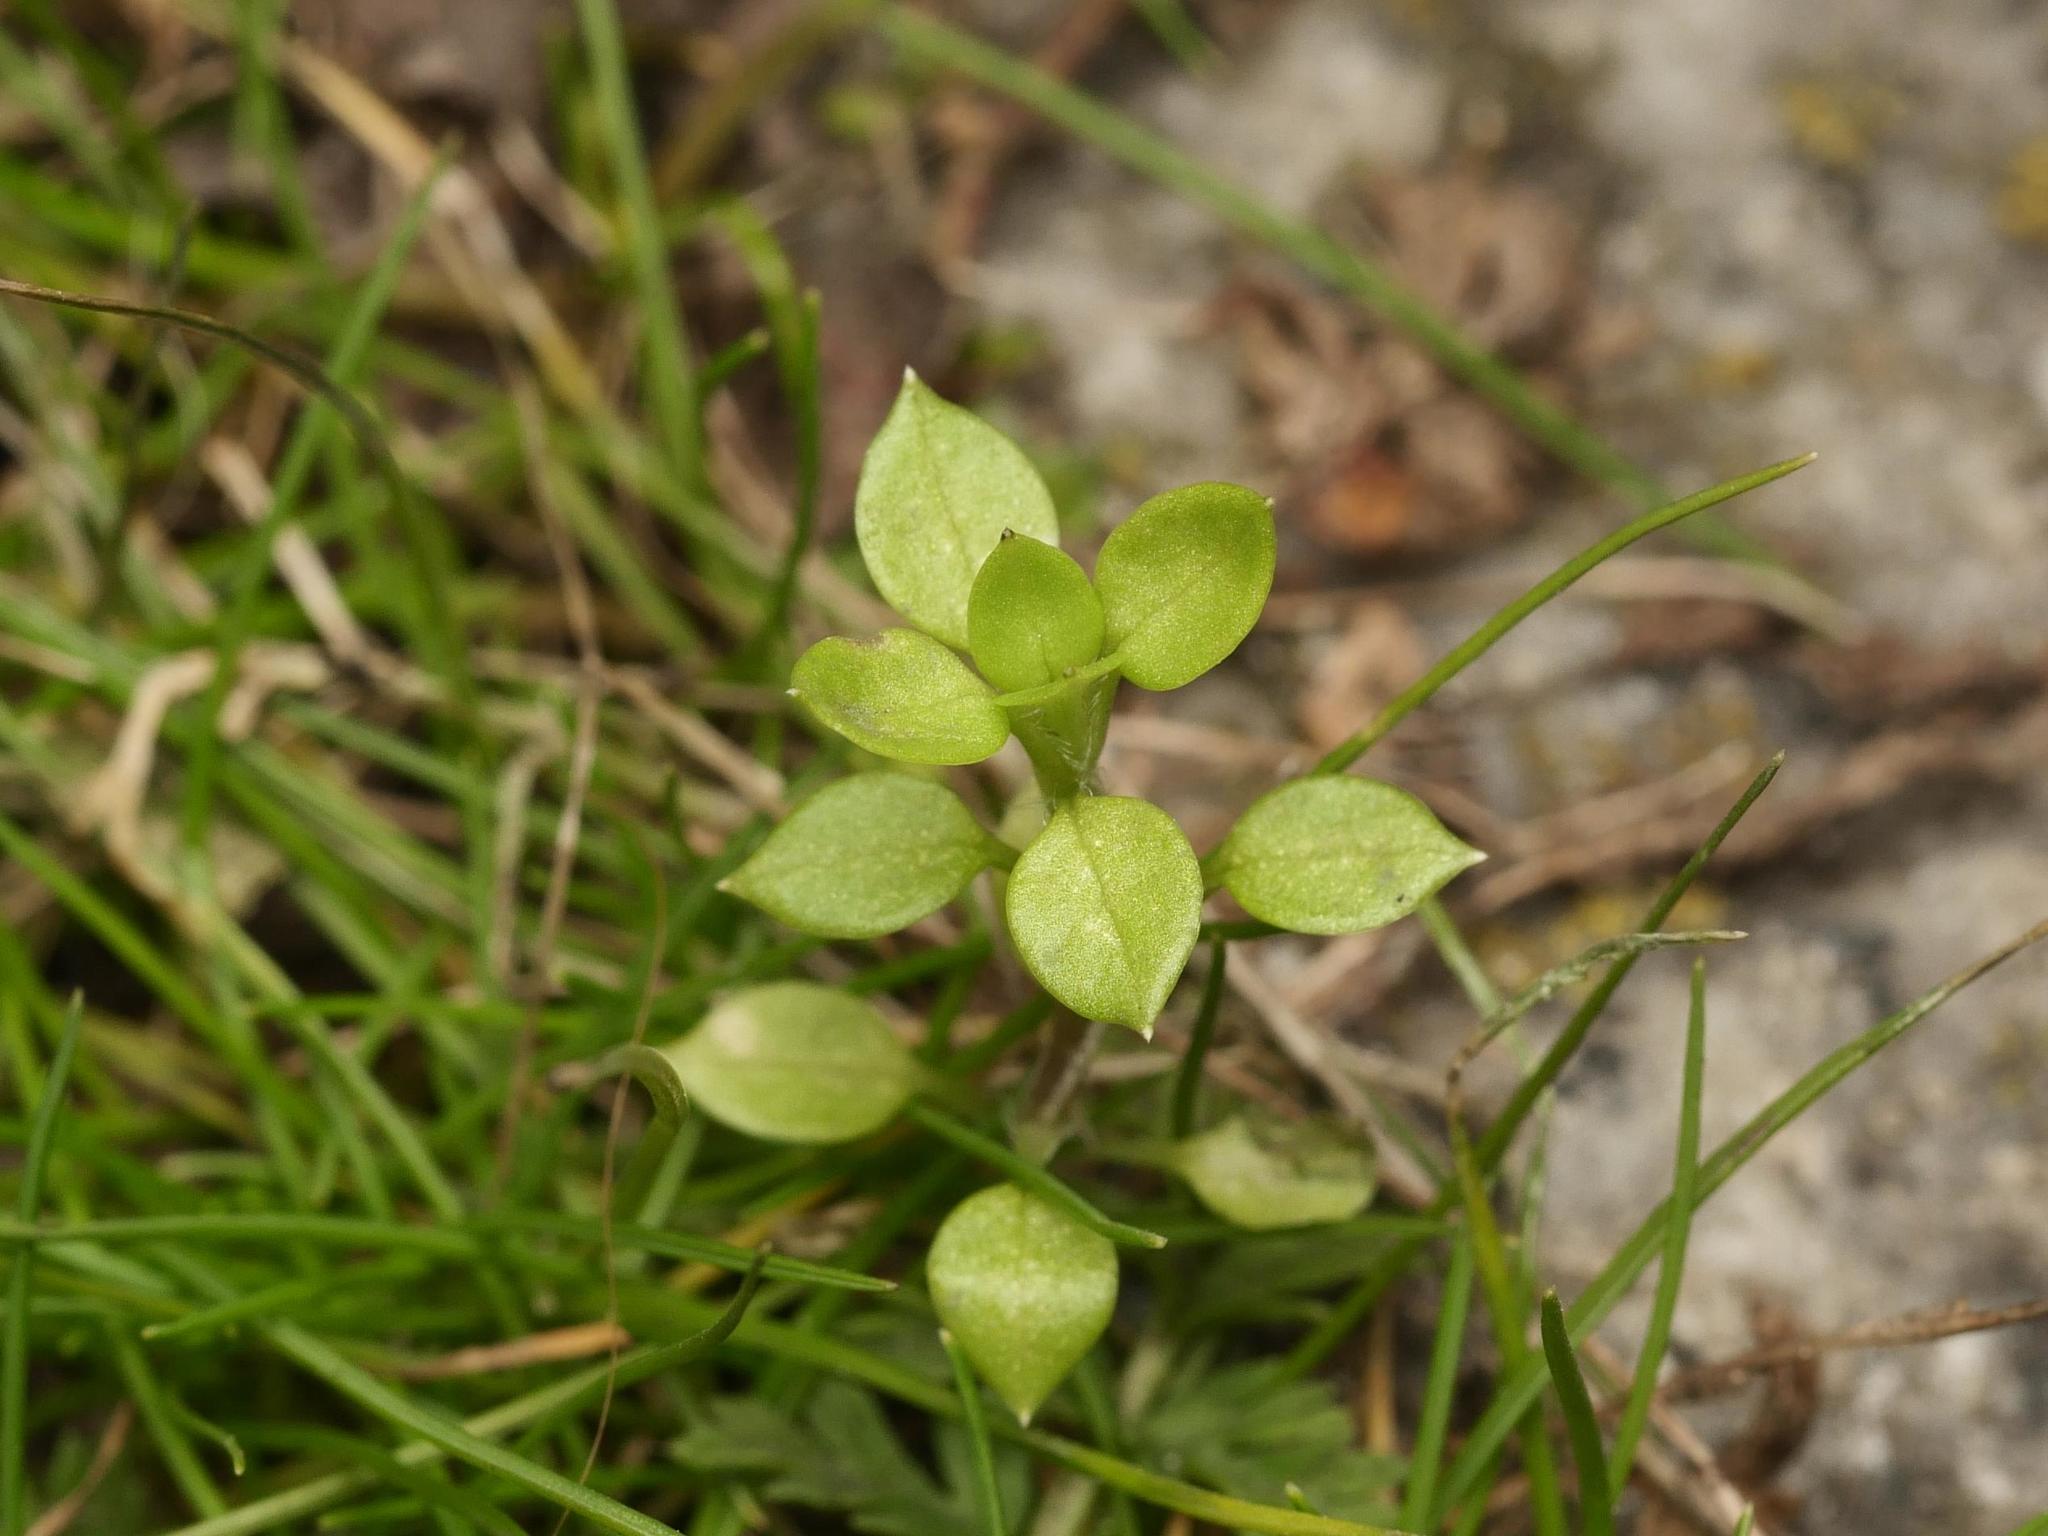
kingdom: Plantae
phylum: Tracheophyta
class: Magnoliopsida
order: Caryophyllales
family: Caryophyllaceae
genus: Stellaria
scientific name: Stellaria media
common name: Common chickweed
